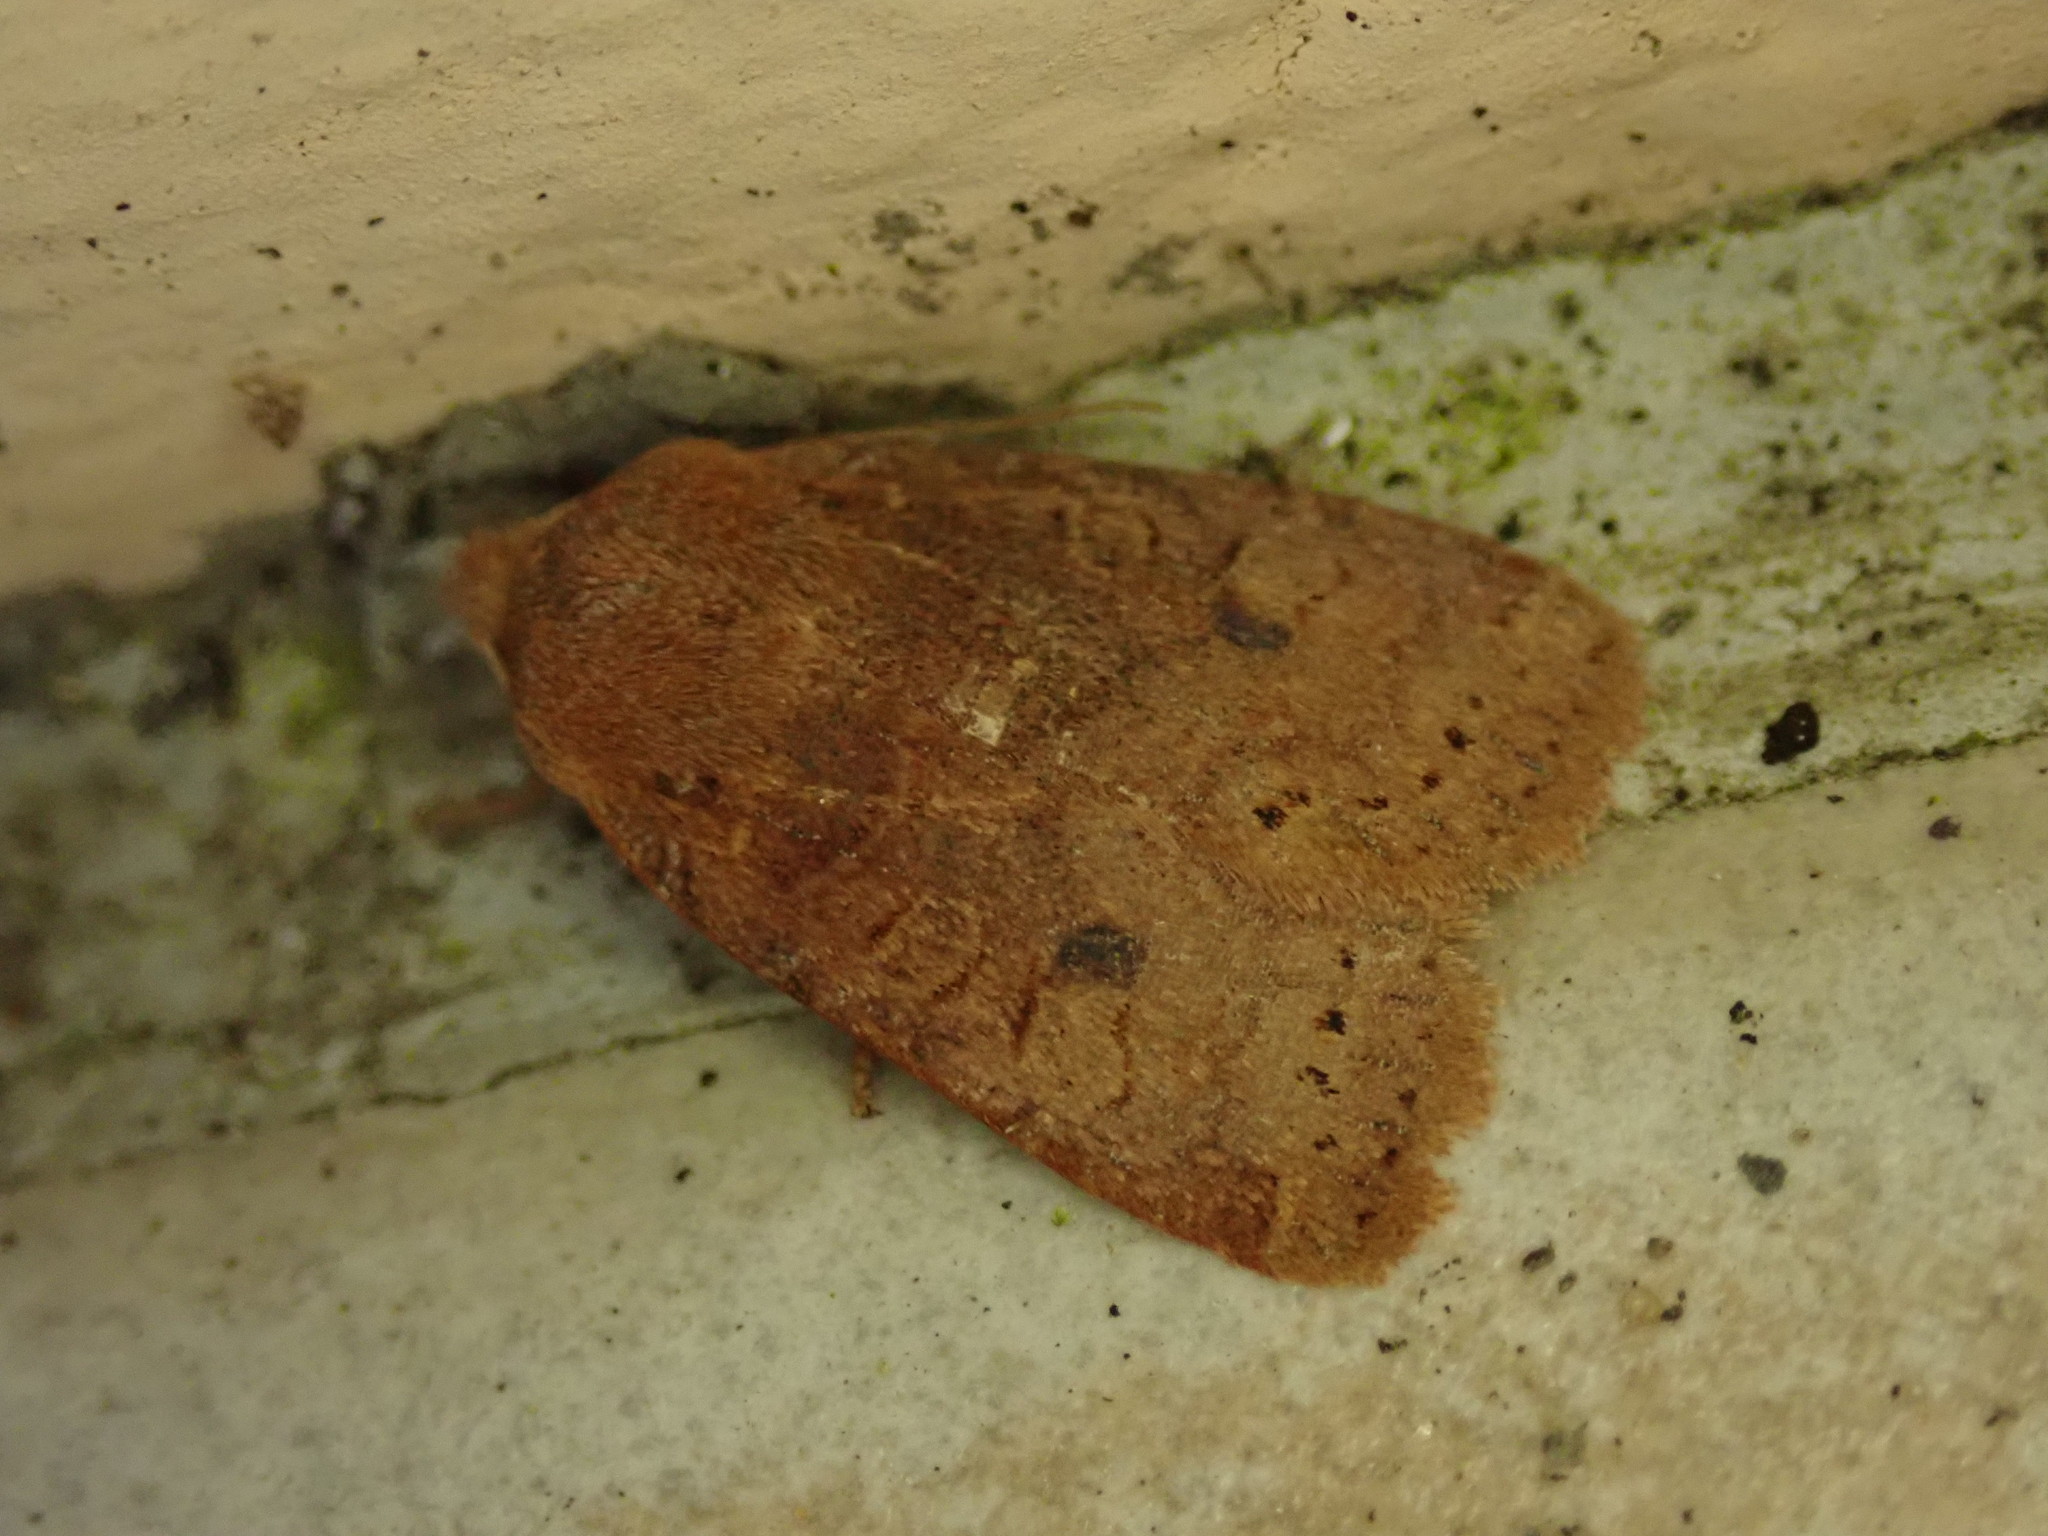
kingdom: Animalia
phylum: Arthropoda
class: Insecta
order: Lepidoptera
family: Noctuidae
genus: Conistra
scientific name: Conistra vaccinii
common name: Chestnut
